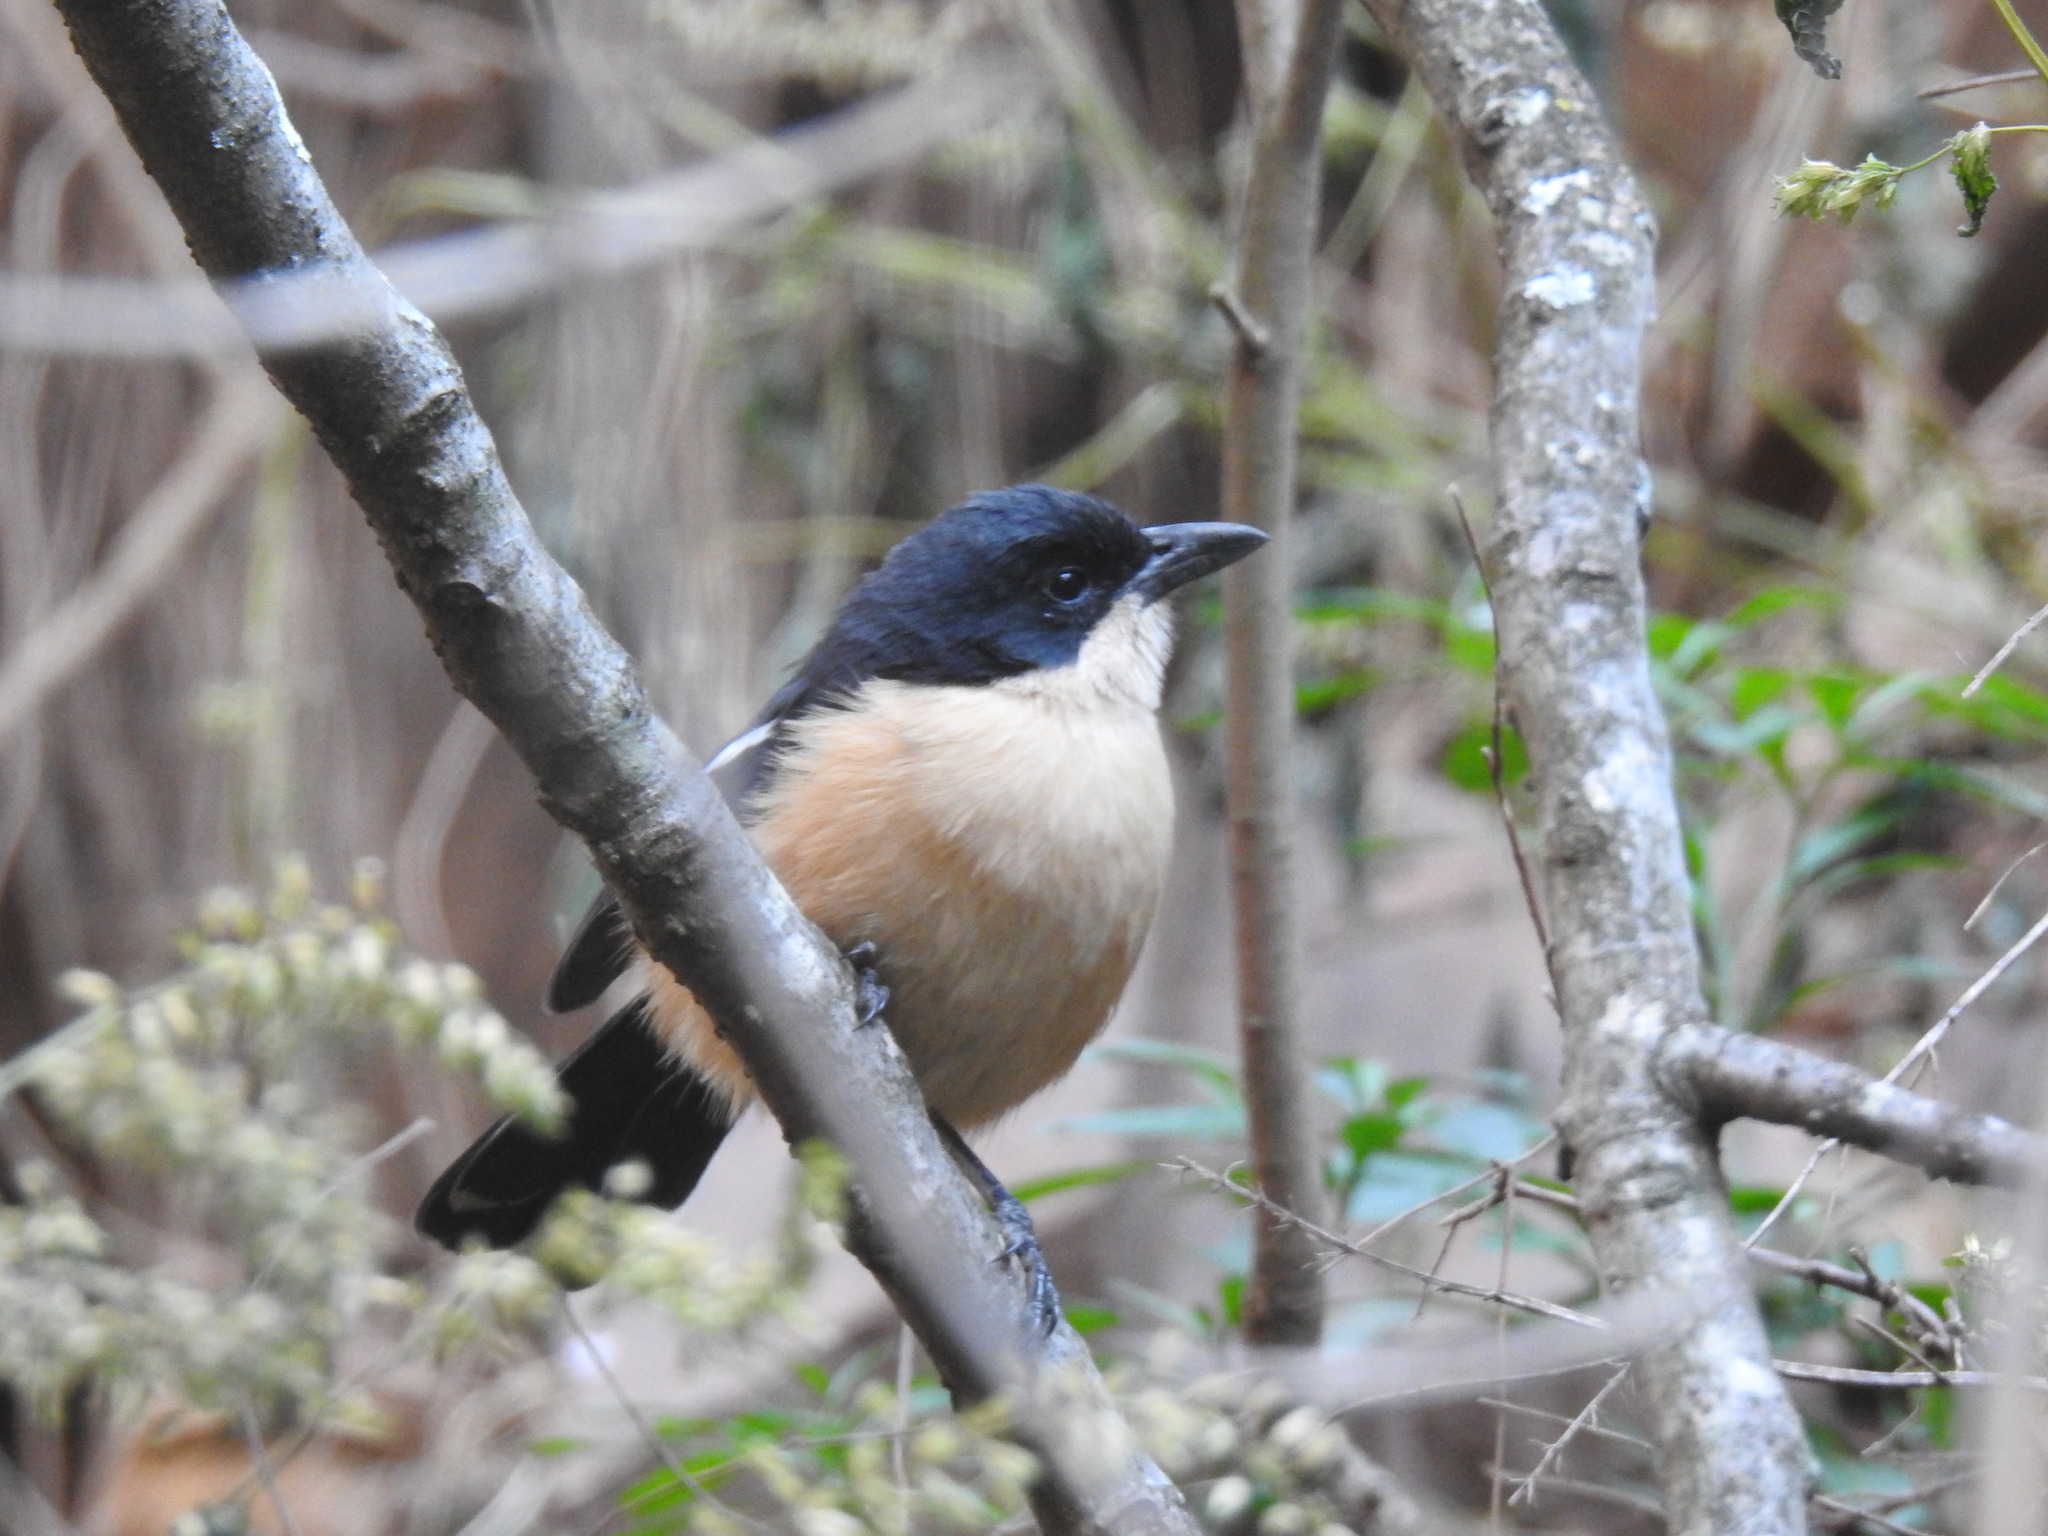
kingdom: Animalia
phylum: Chordata
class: Aves
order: Passeriformes
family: Malaconotidae
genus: Laniarius
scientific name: Laniarius ferrugineus
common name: Southern boubou
